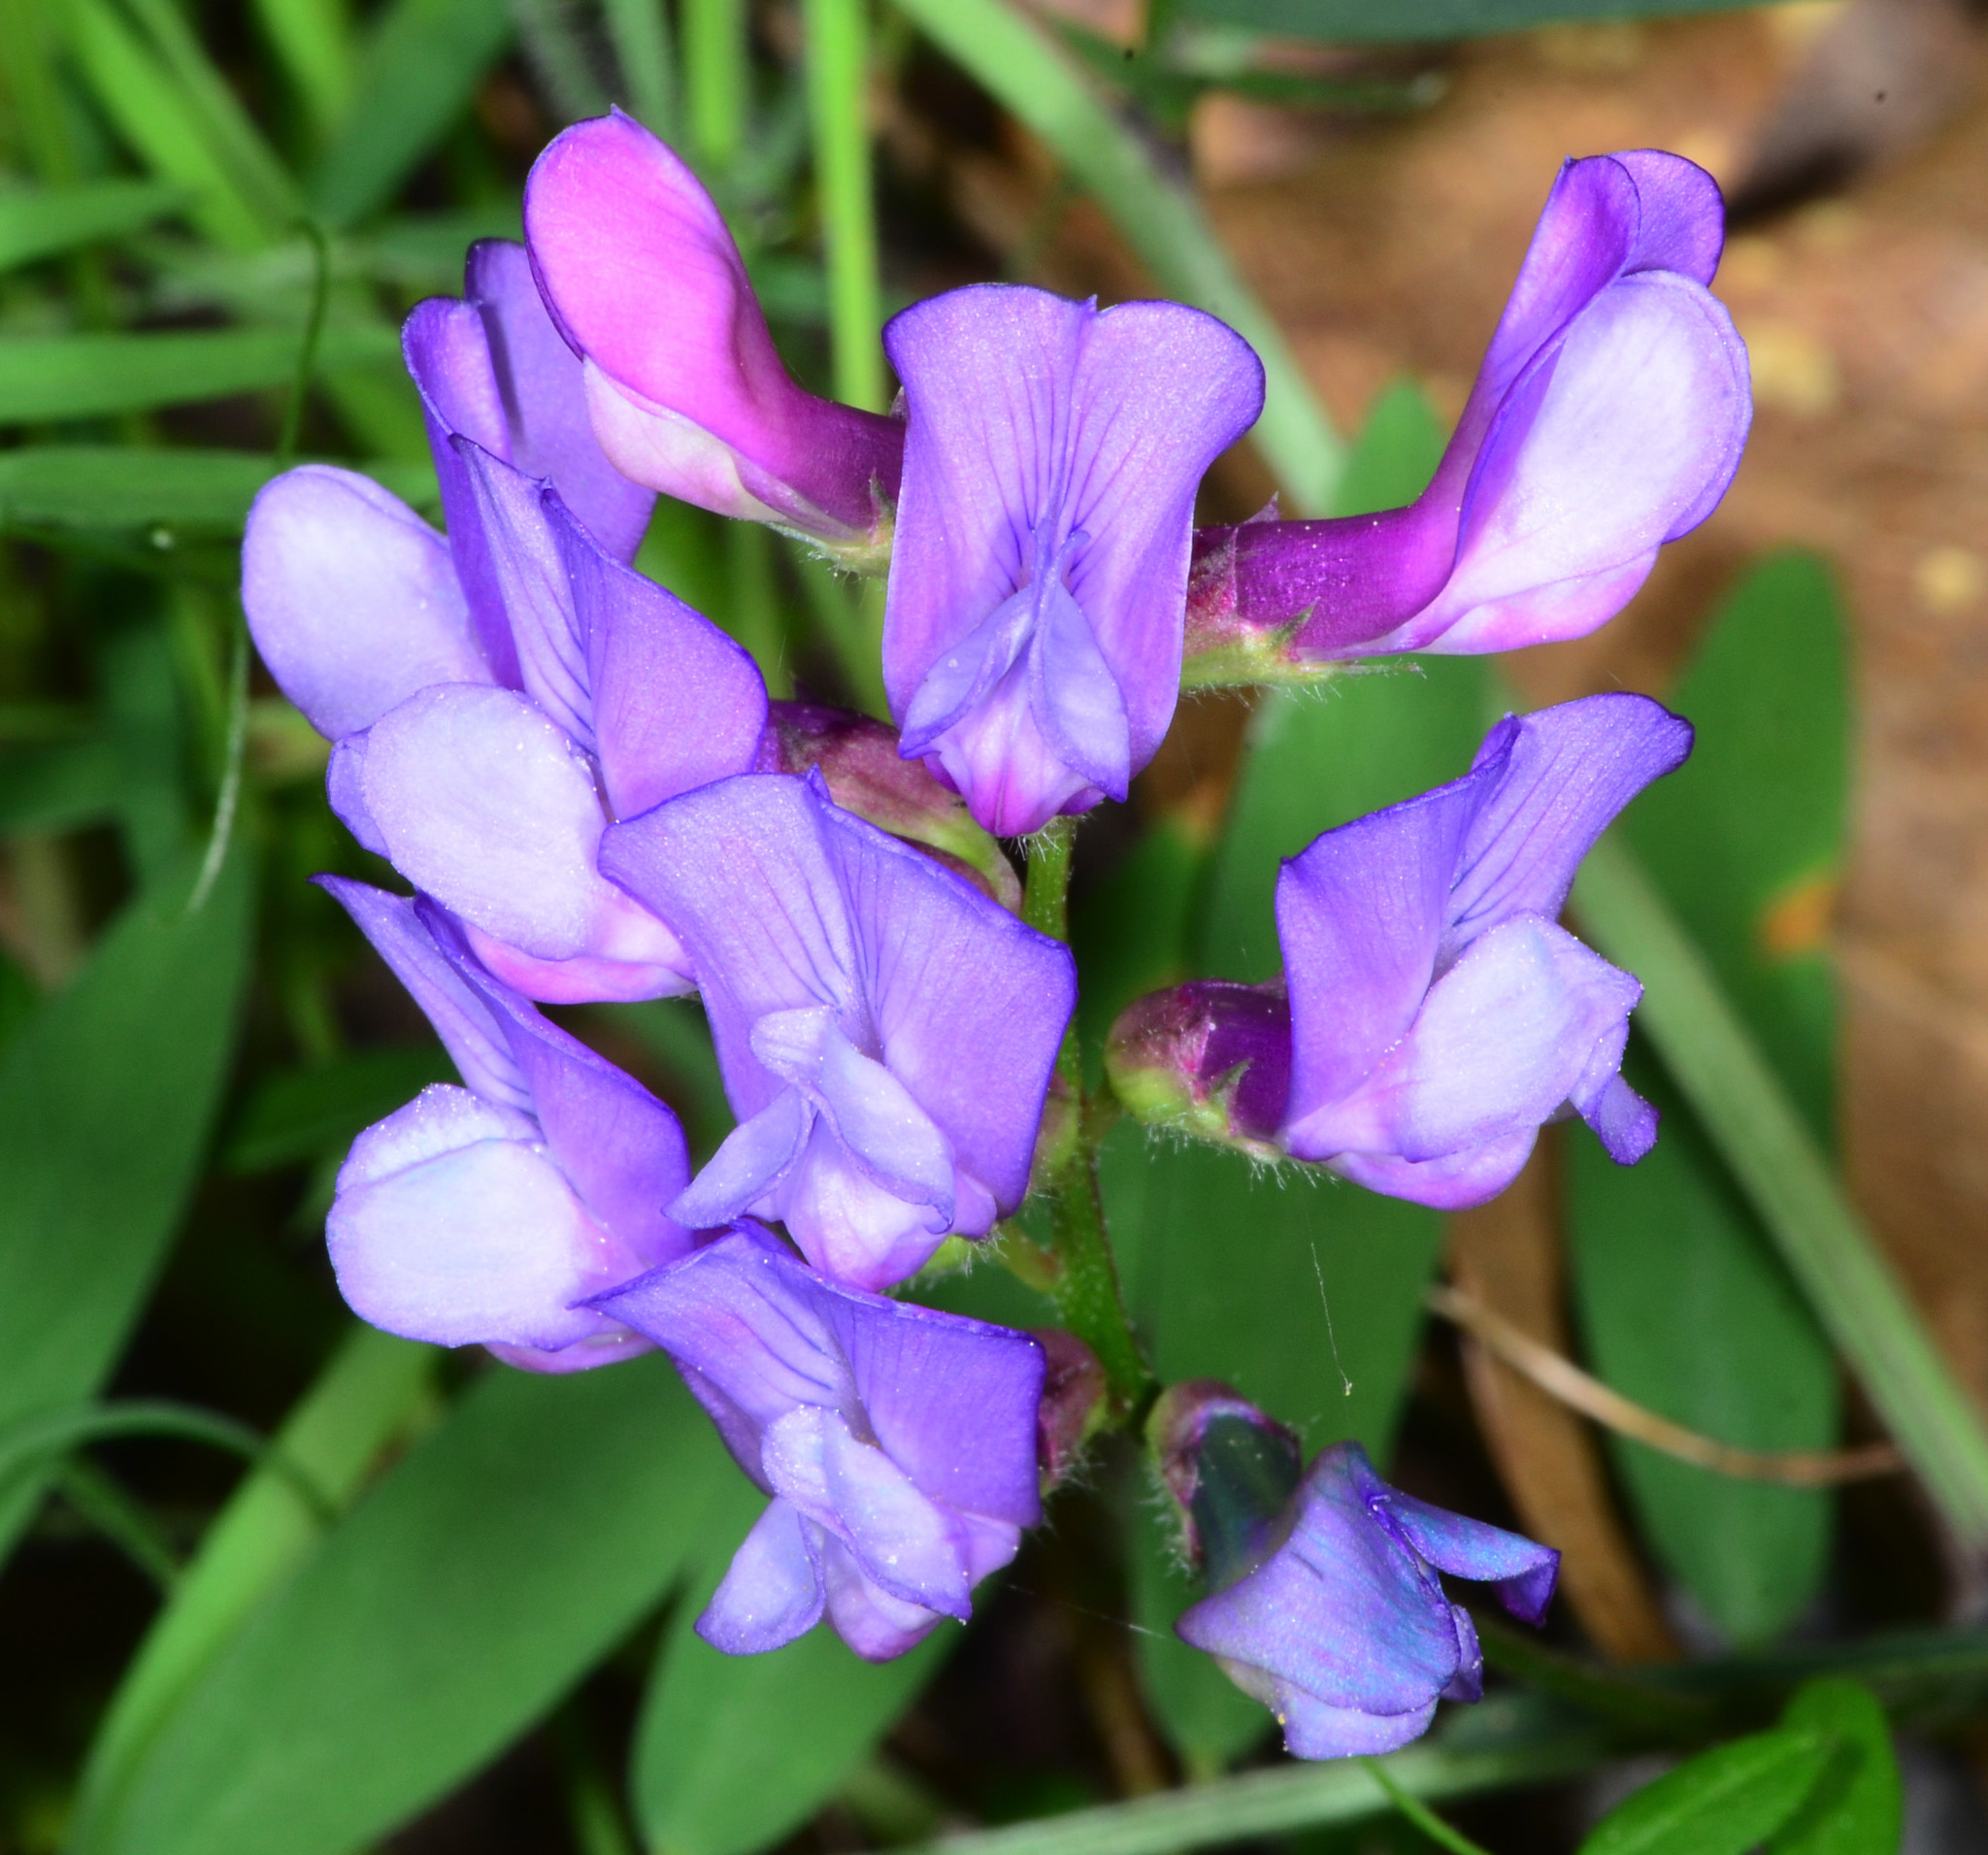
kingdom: Plantae
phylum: Tracheophyta
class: Magnoliopsida
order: Fabales
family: Fabaceae
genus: Vicia
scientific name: Vicia americana
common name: American vetch
